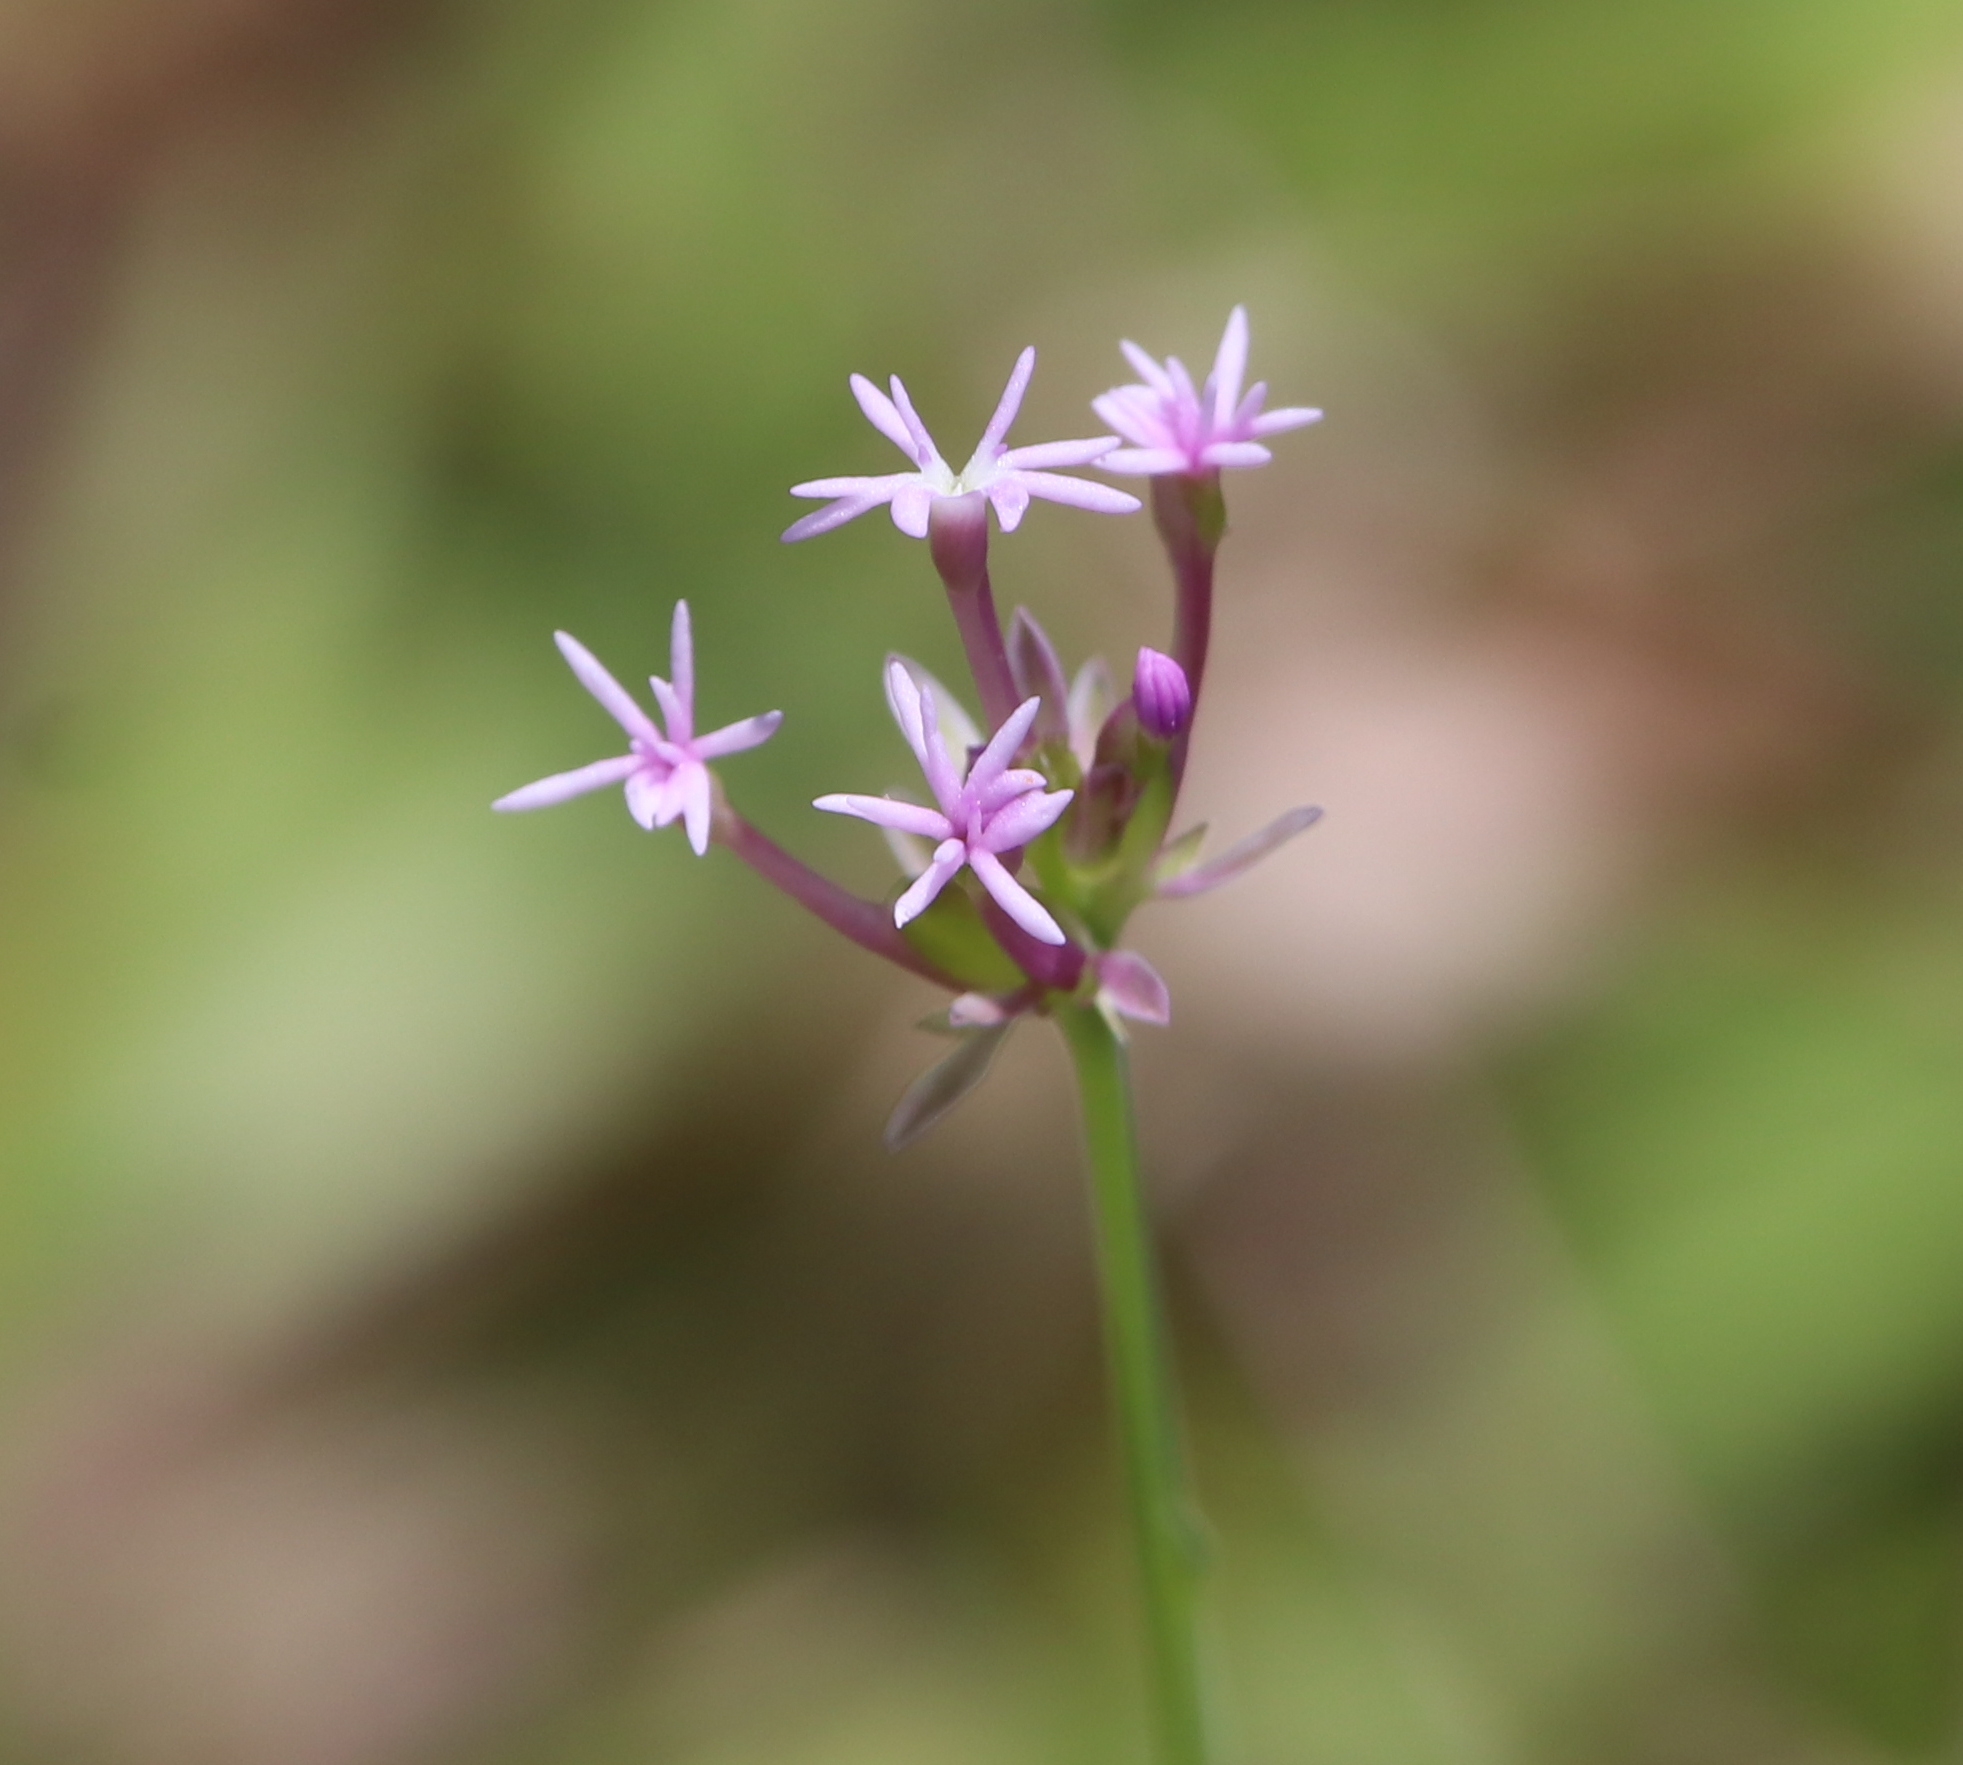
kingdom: Plantae
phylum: Tracheophyta
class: Magnoliopsida
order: Fabales
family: Polygalaceae
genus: Polygala
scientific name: Polygala incarnata
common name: Pink milkwort
